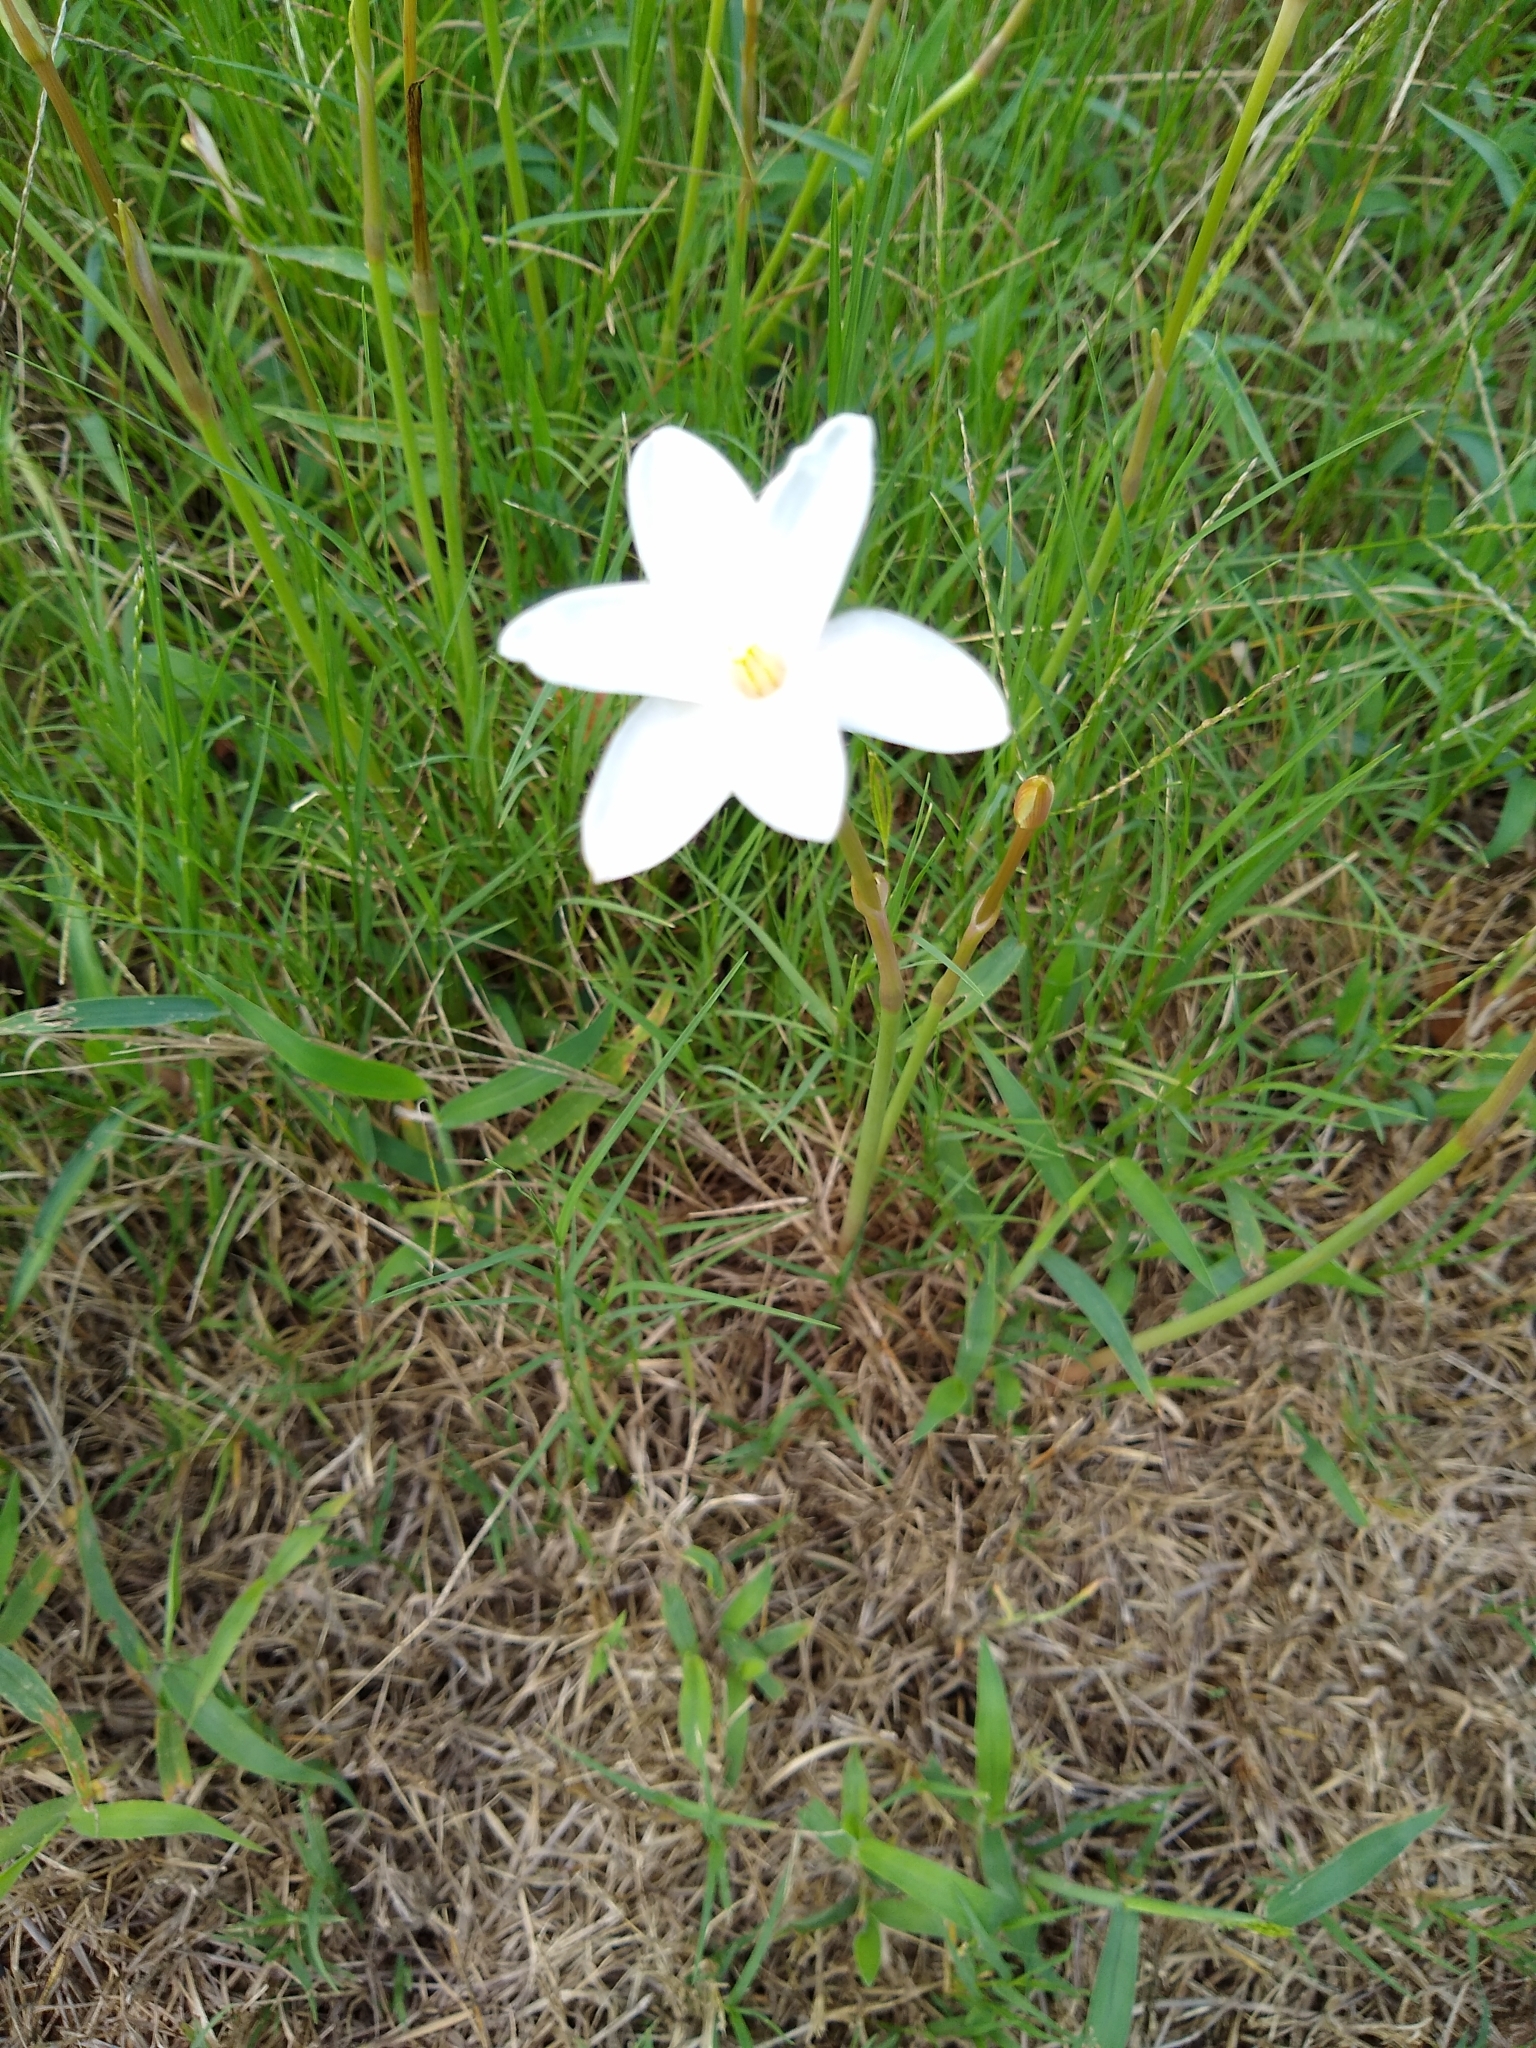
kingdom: Plantae
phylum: Tracheophyta
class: Liliopsida
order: Asparagales
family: Amaryllidaceae
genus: Zephyranthes
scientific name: Zephyranthes chlorosolen
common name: Evening rain-lily
